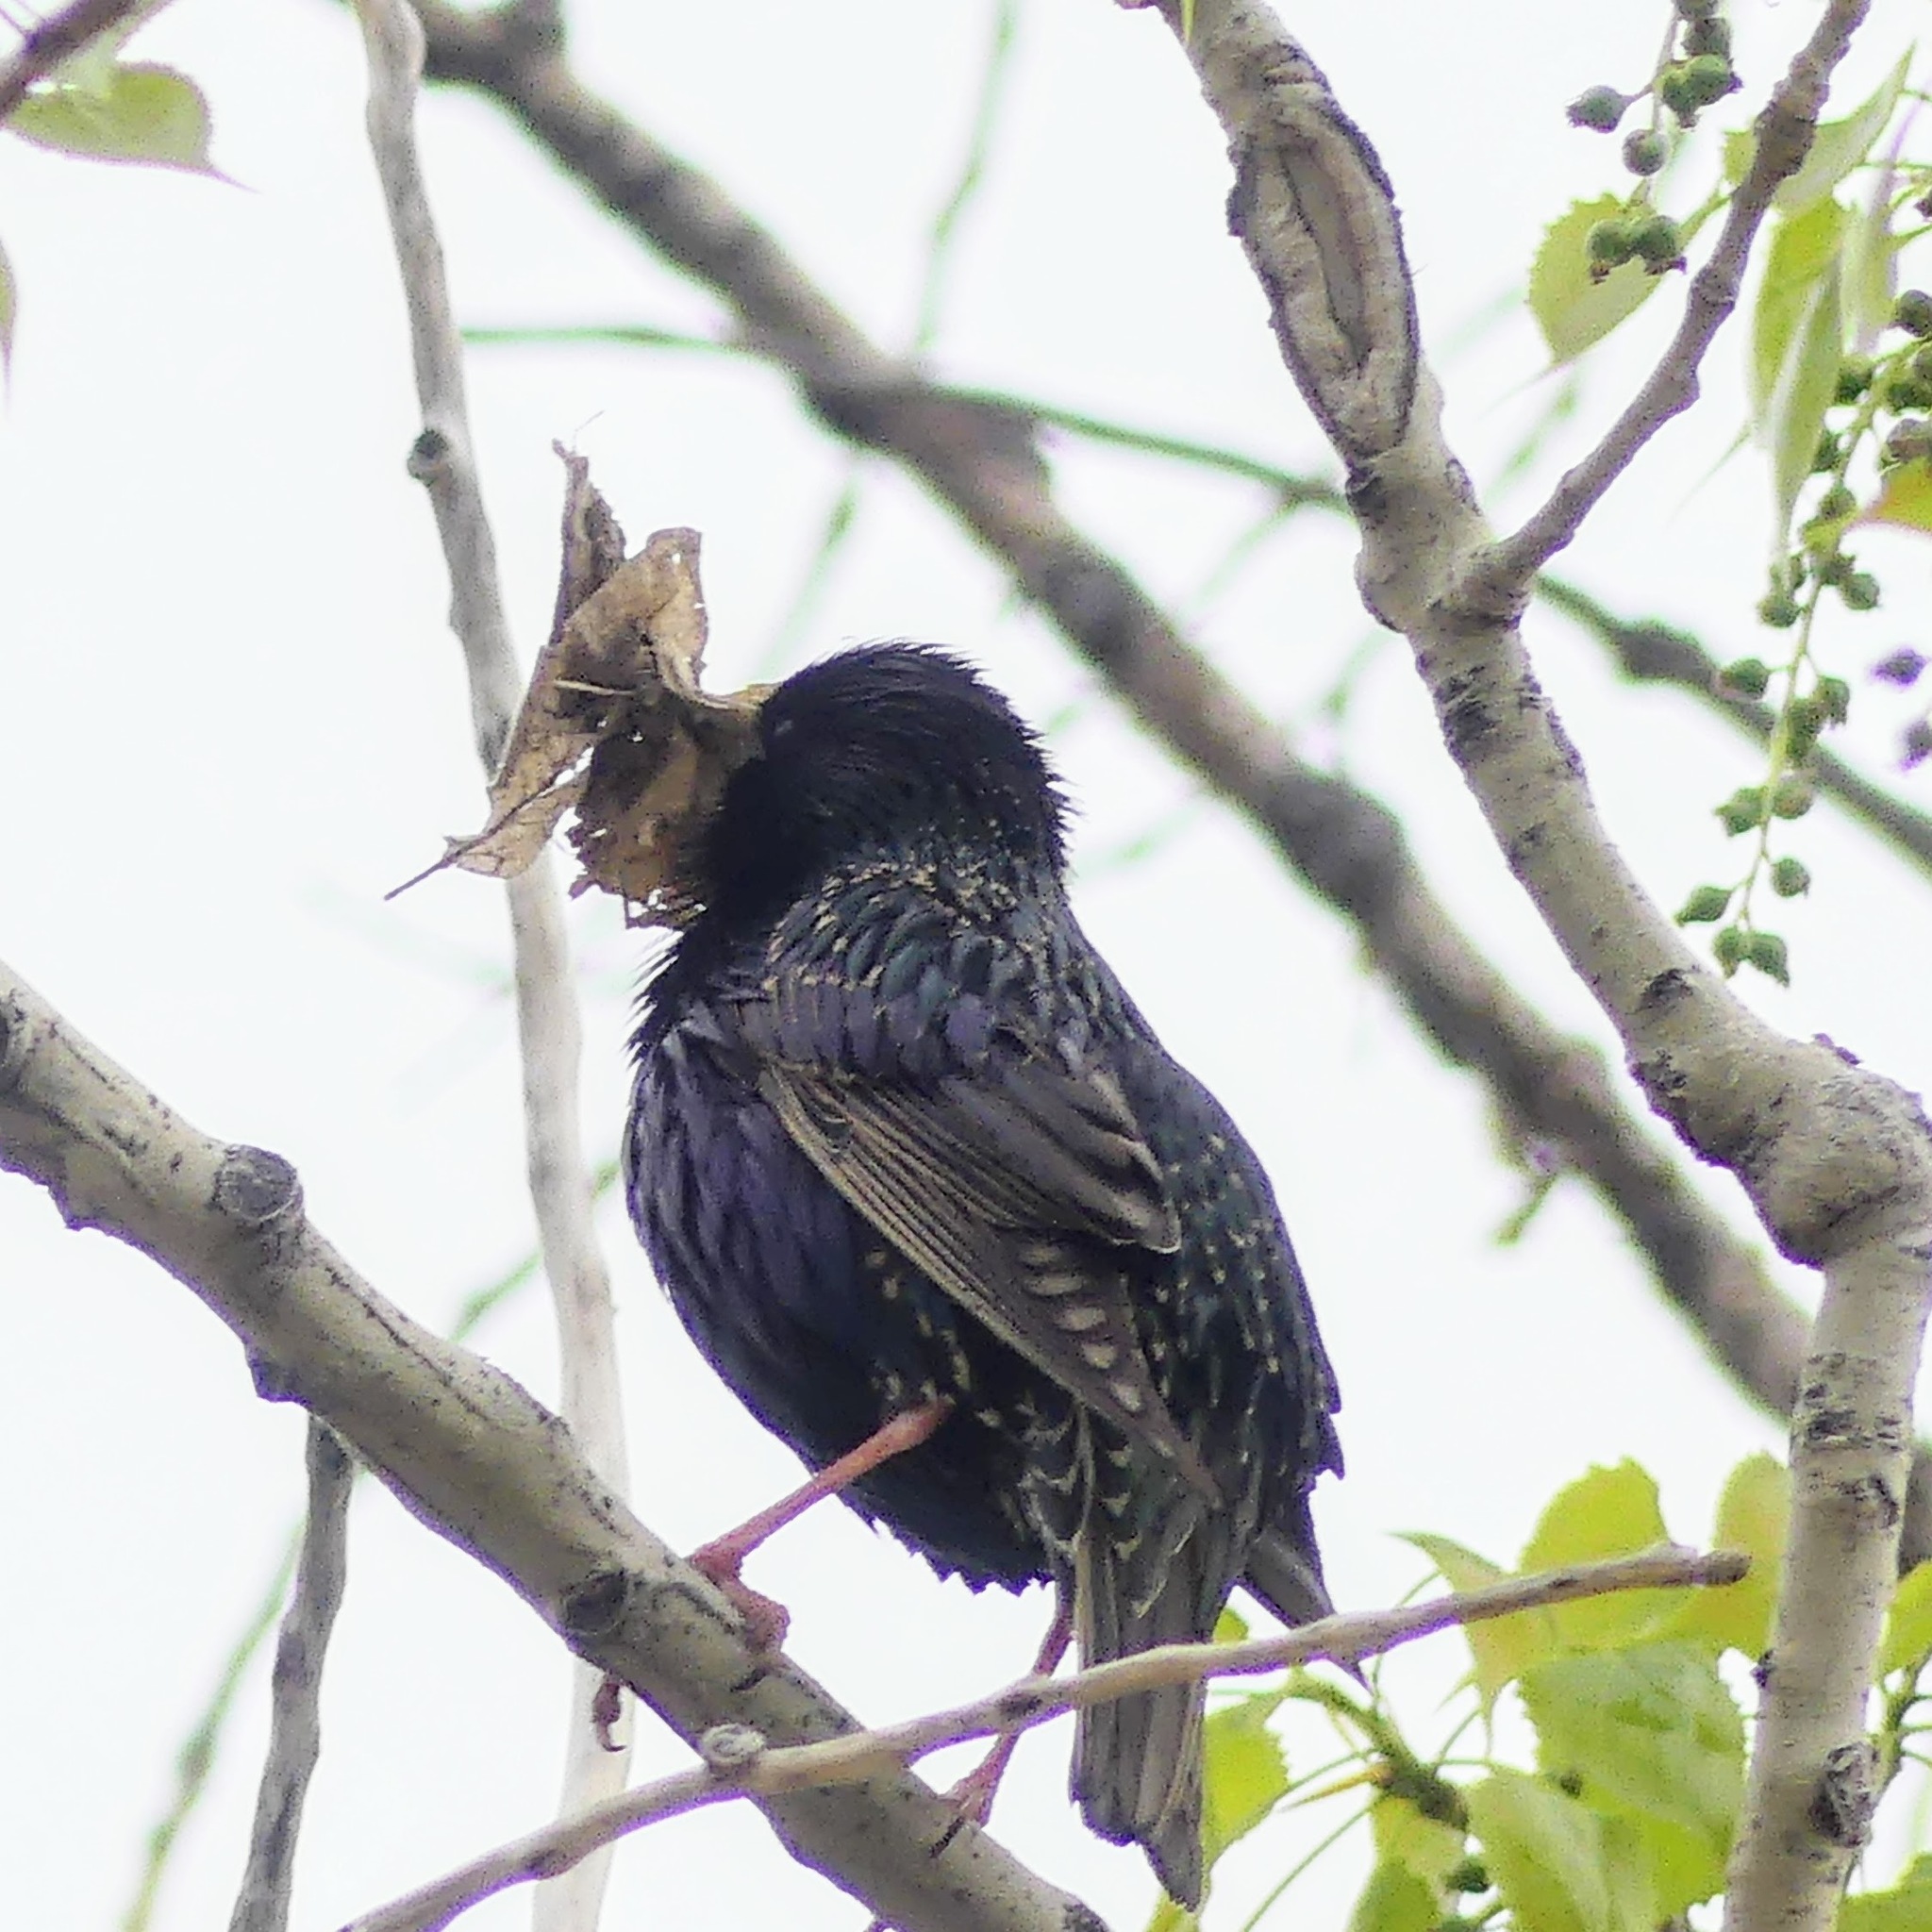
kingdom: Animalia
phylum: Chordata
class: Aves
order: Passeriformes
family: Sturnidae
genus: Sturnus
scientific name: Sturnus vulgaris
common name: Common starling
